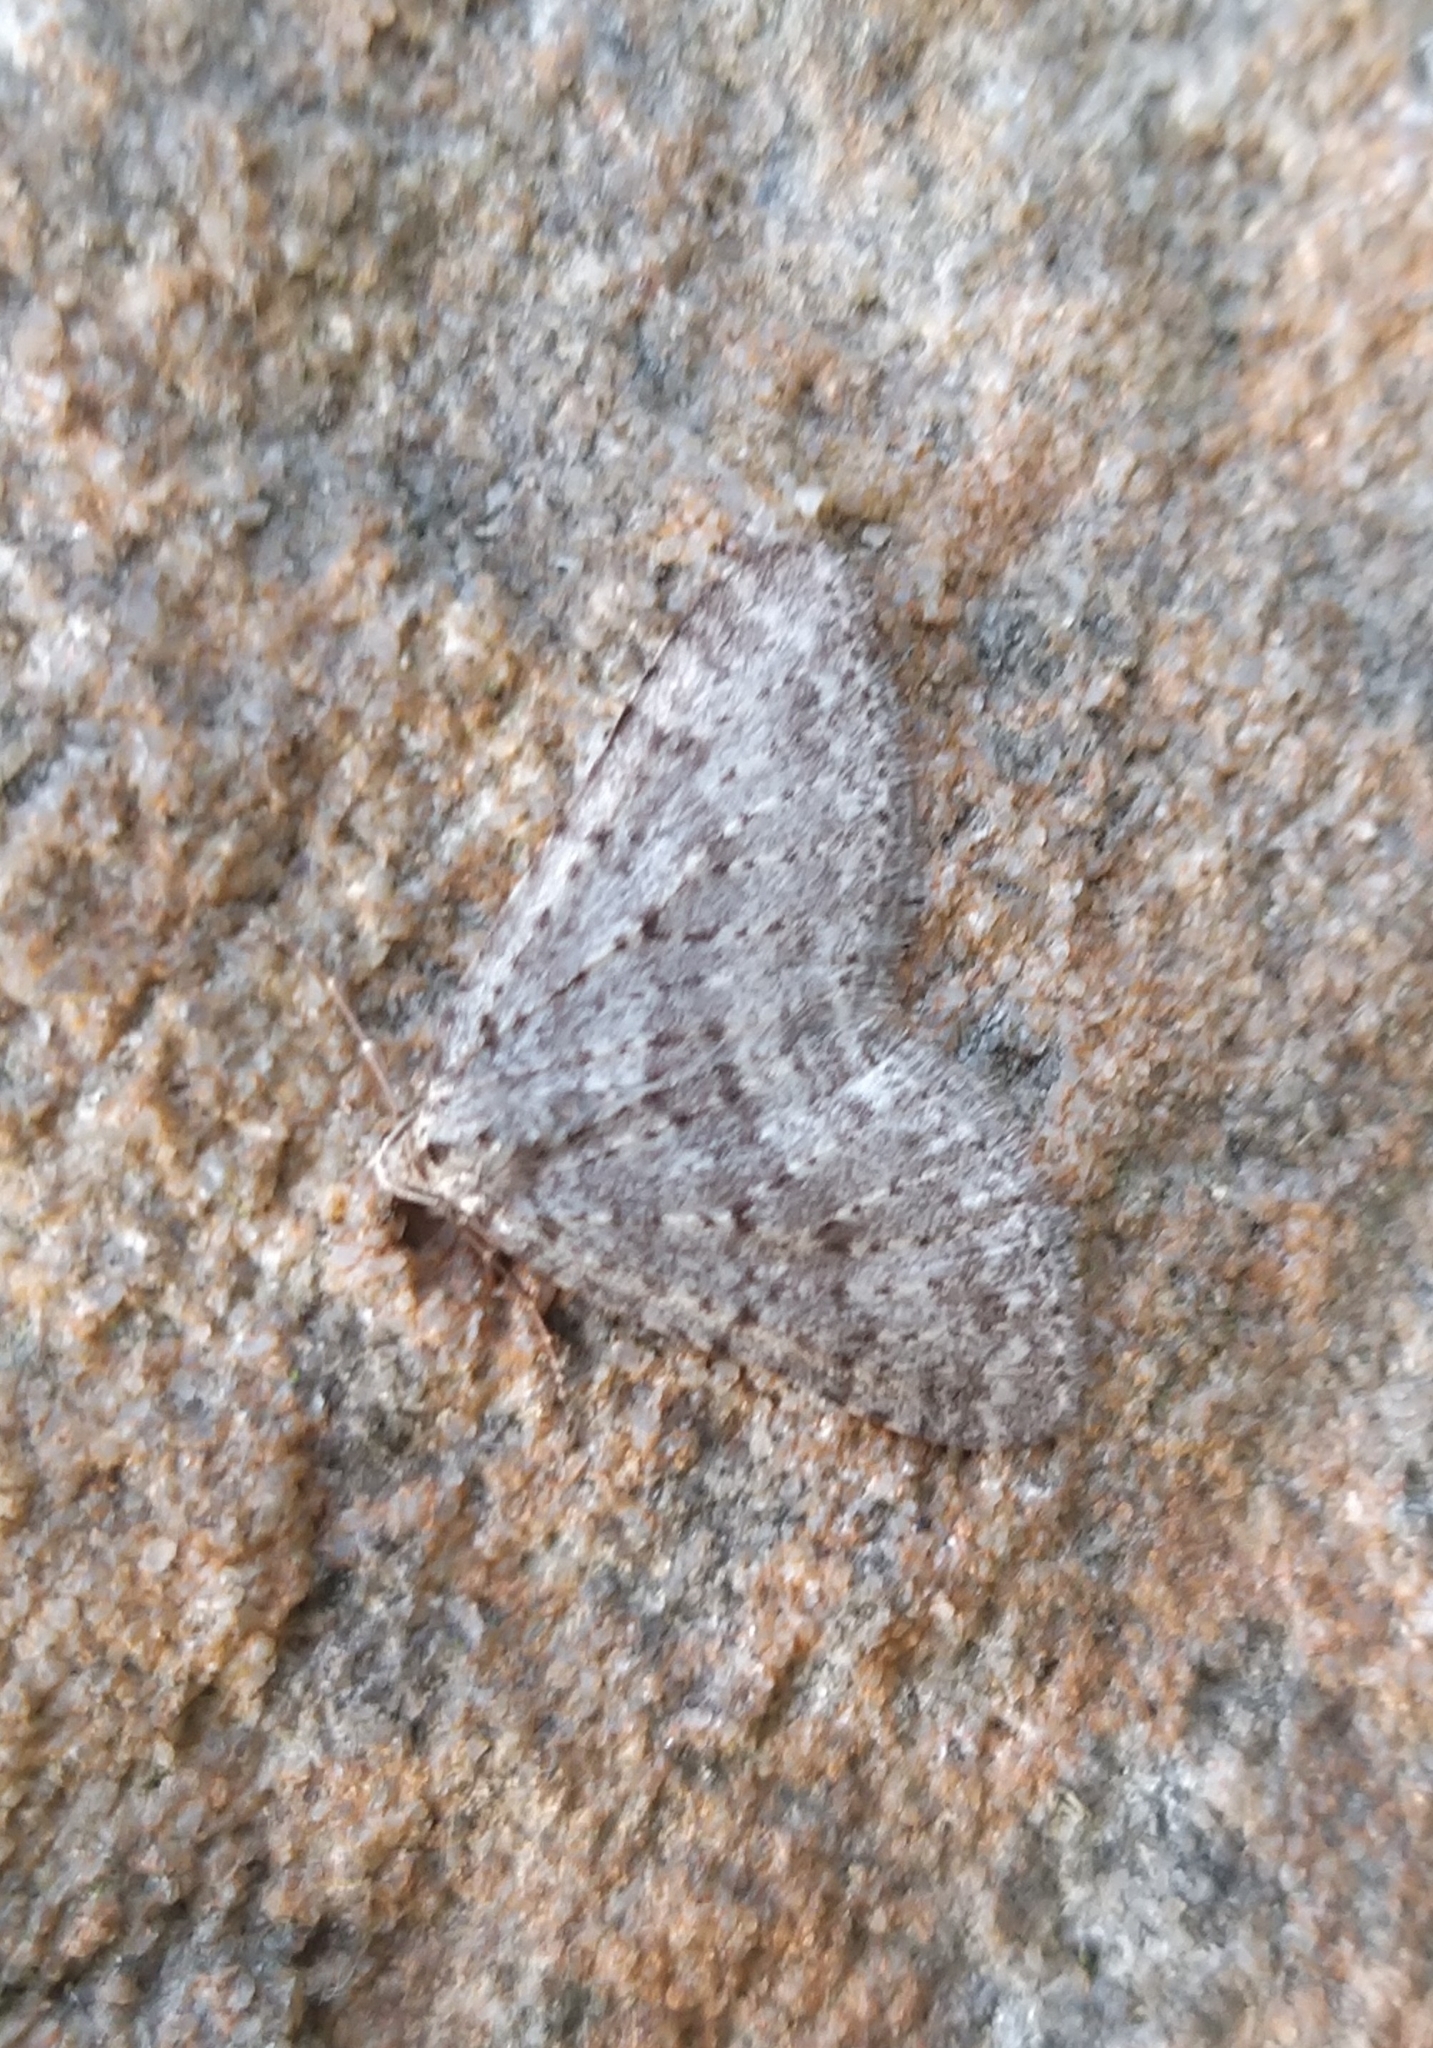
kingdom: Animalia
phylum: Arthropoda
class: Insecta
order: Lepidoptera
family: Geometridae
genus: Colostygia
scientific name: Colostygia multistrigaria
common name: Mottled grey
